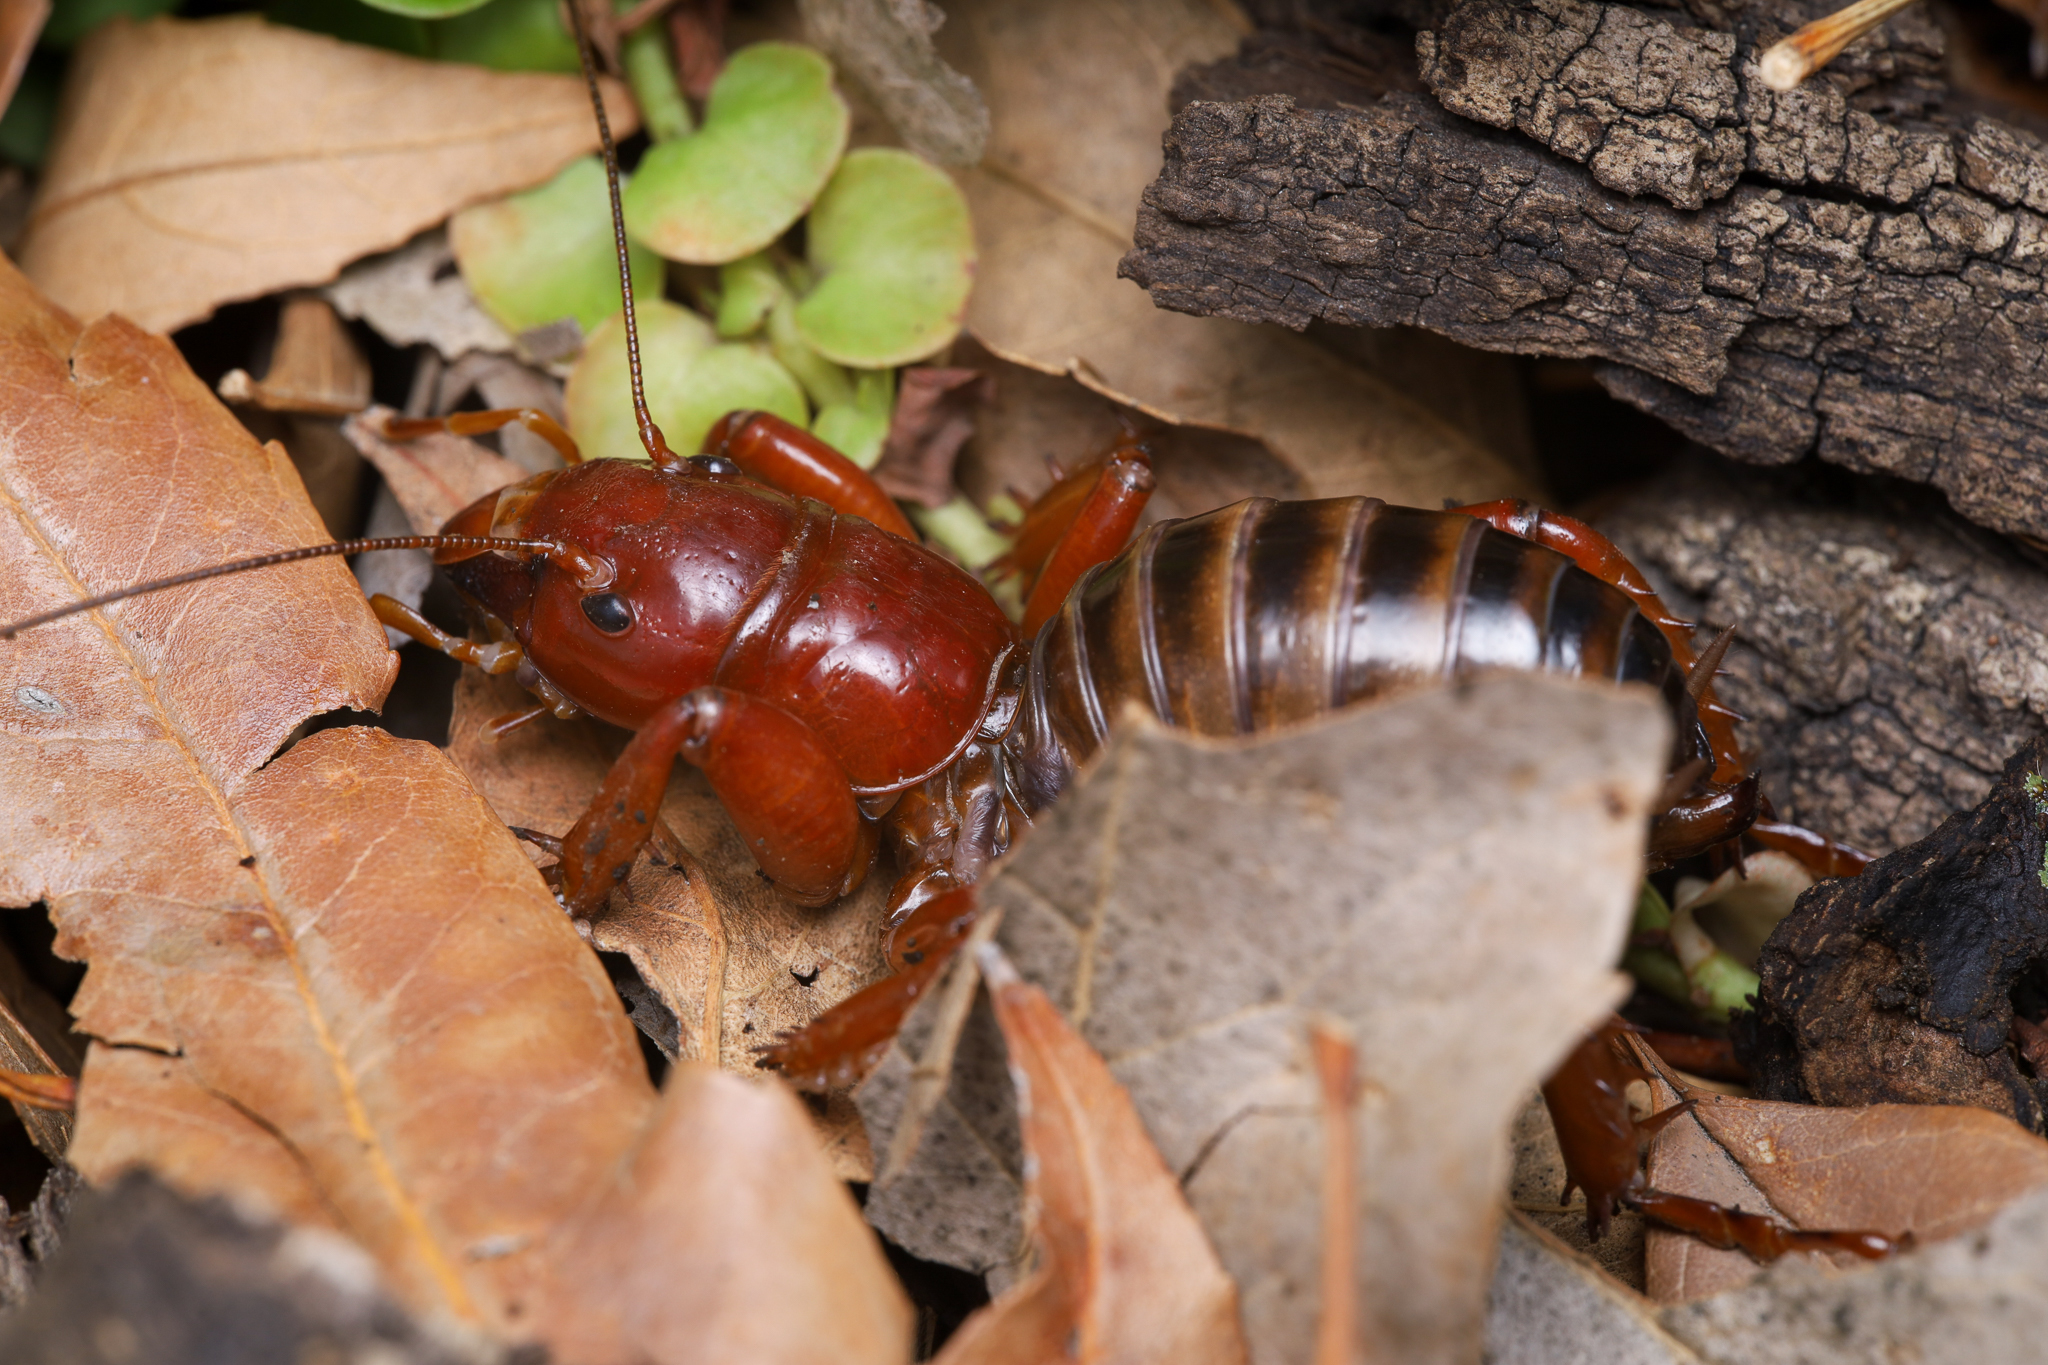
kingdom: Animalia
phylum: Arthropoda
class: Insecta
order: Orthoptera
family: Stenopelmatidae
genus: Stenopelmatus
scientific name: Stenopelmatus talpa
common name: Mole jerusalem cricket
